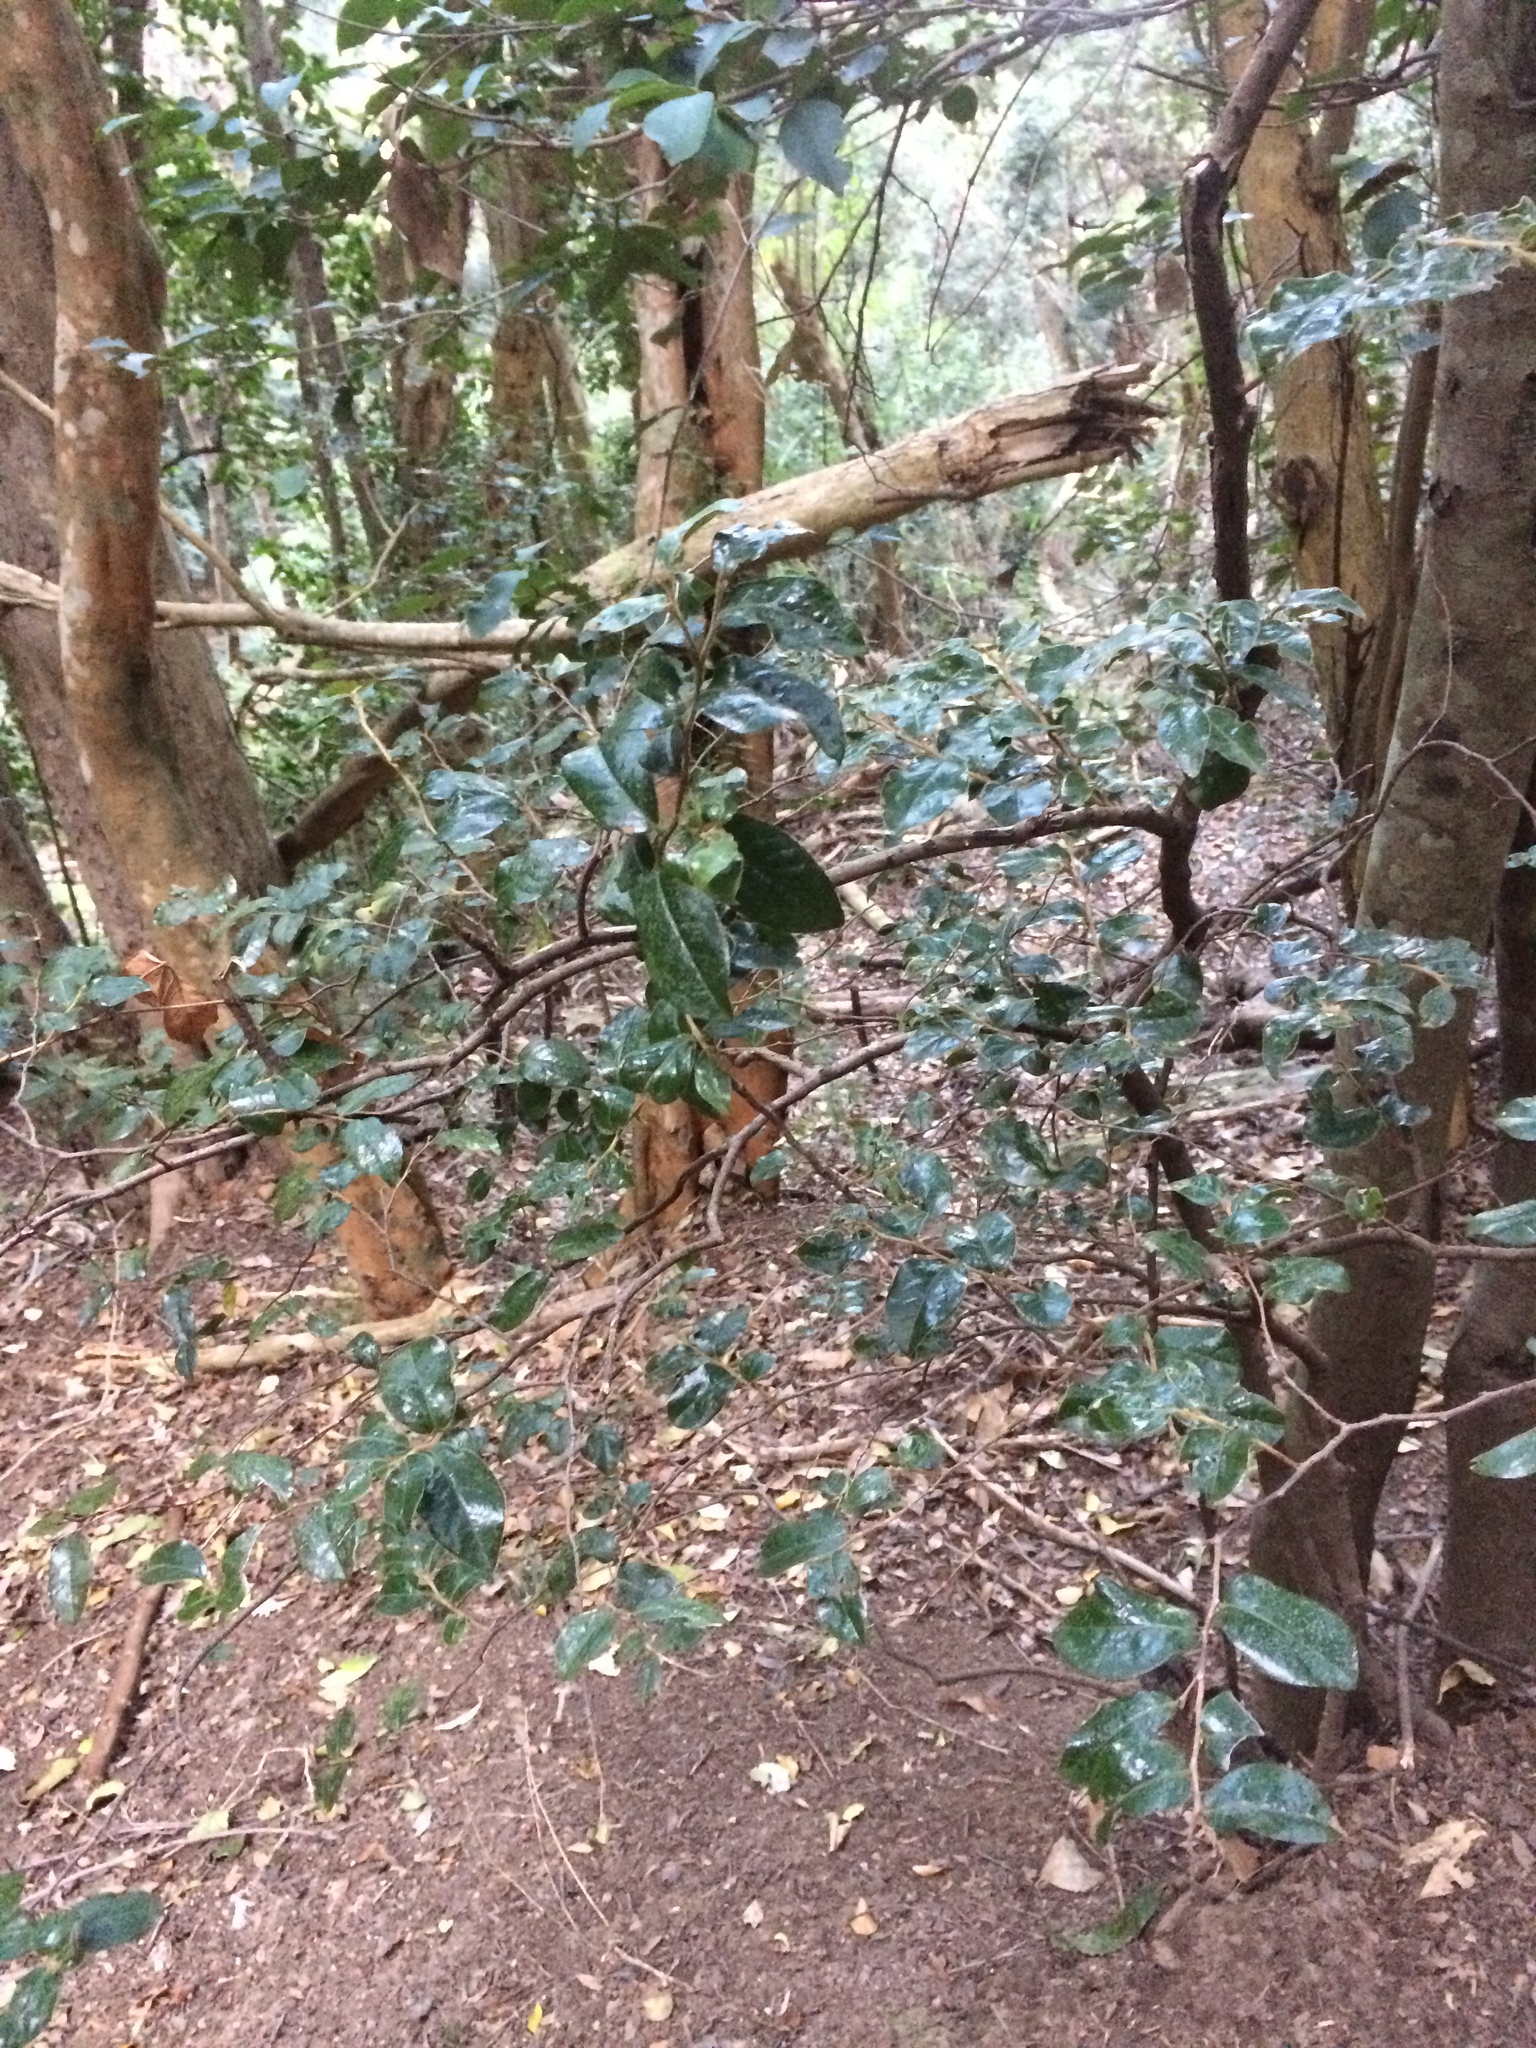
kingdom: Plantae
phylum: Tracheophyta
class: Magnoliopsida
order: Ericales
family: Ebenaceae
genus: Diospyros
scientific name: Diospyros whyteana
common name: Bladder-nut
